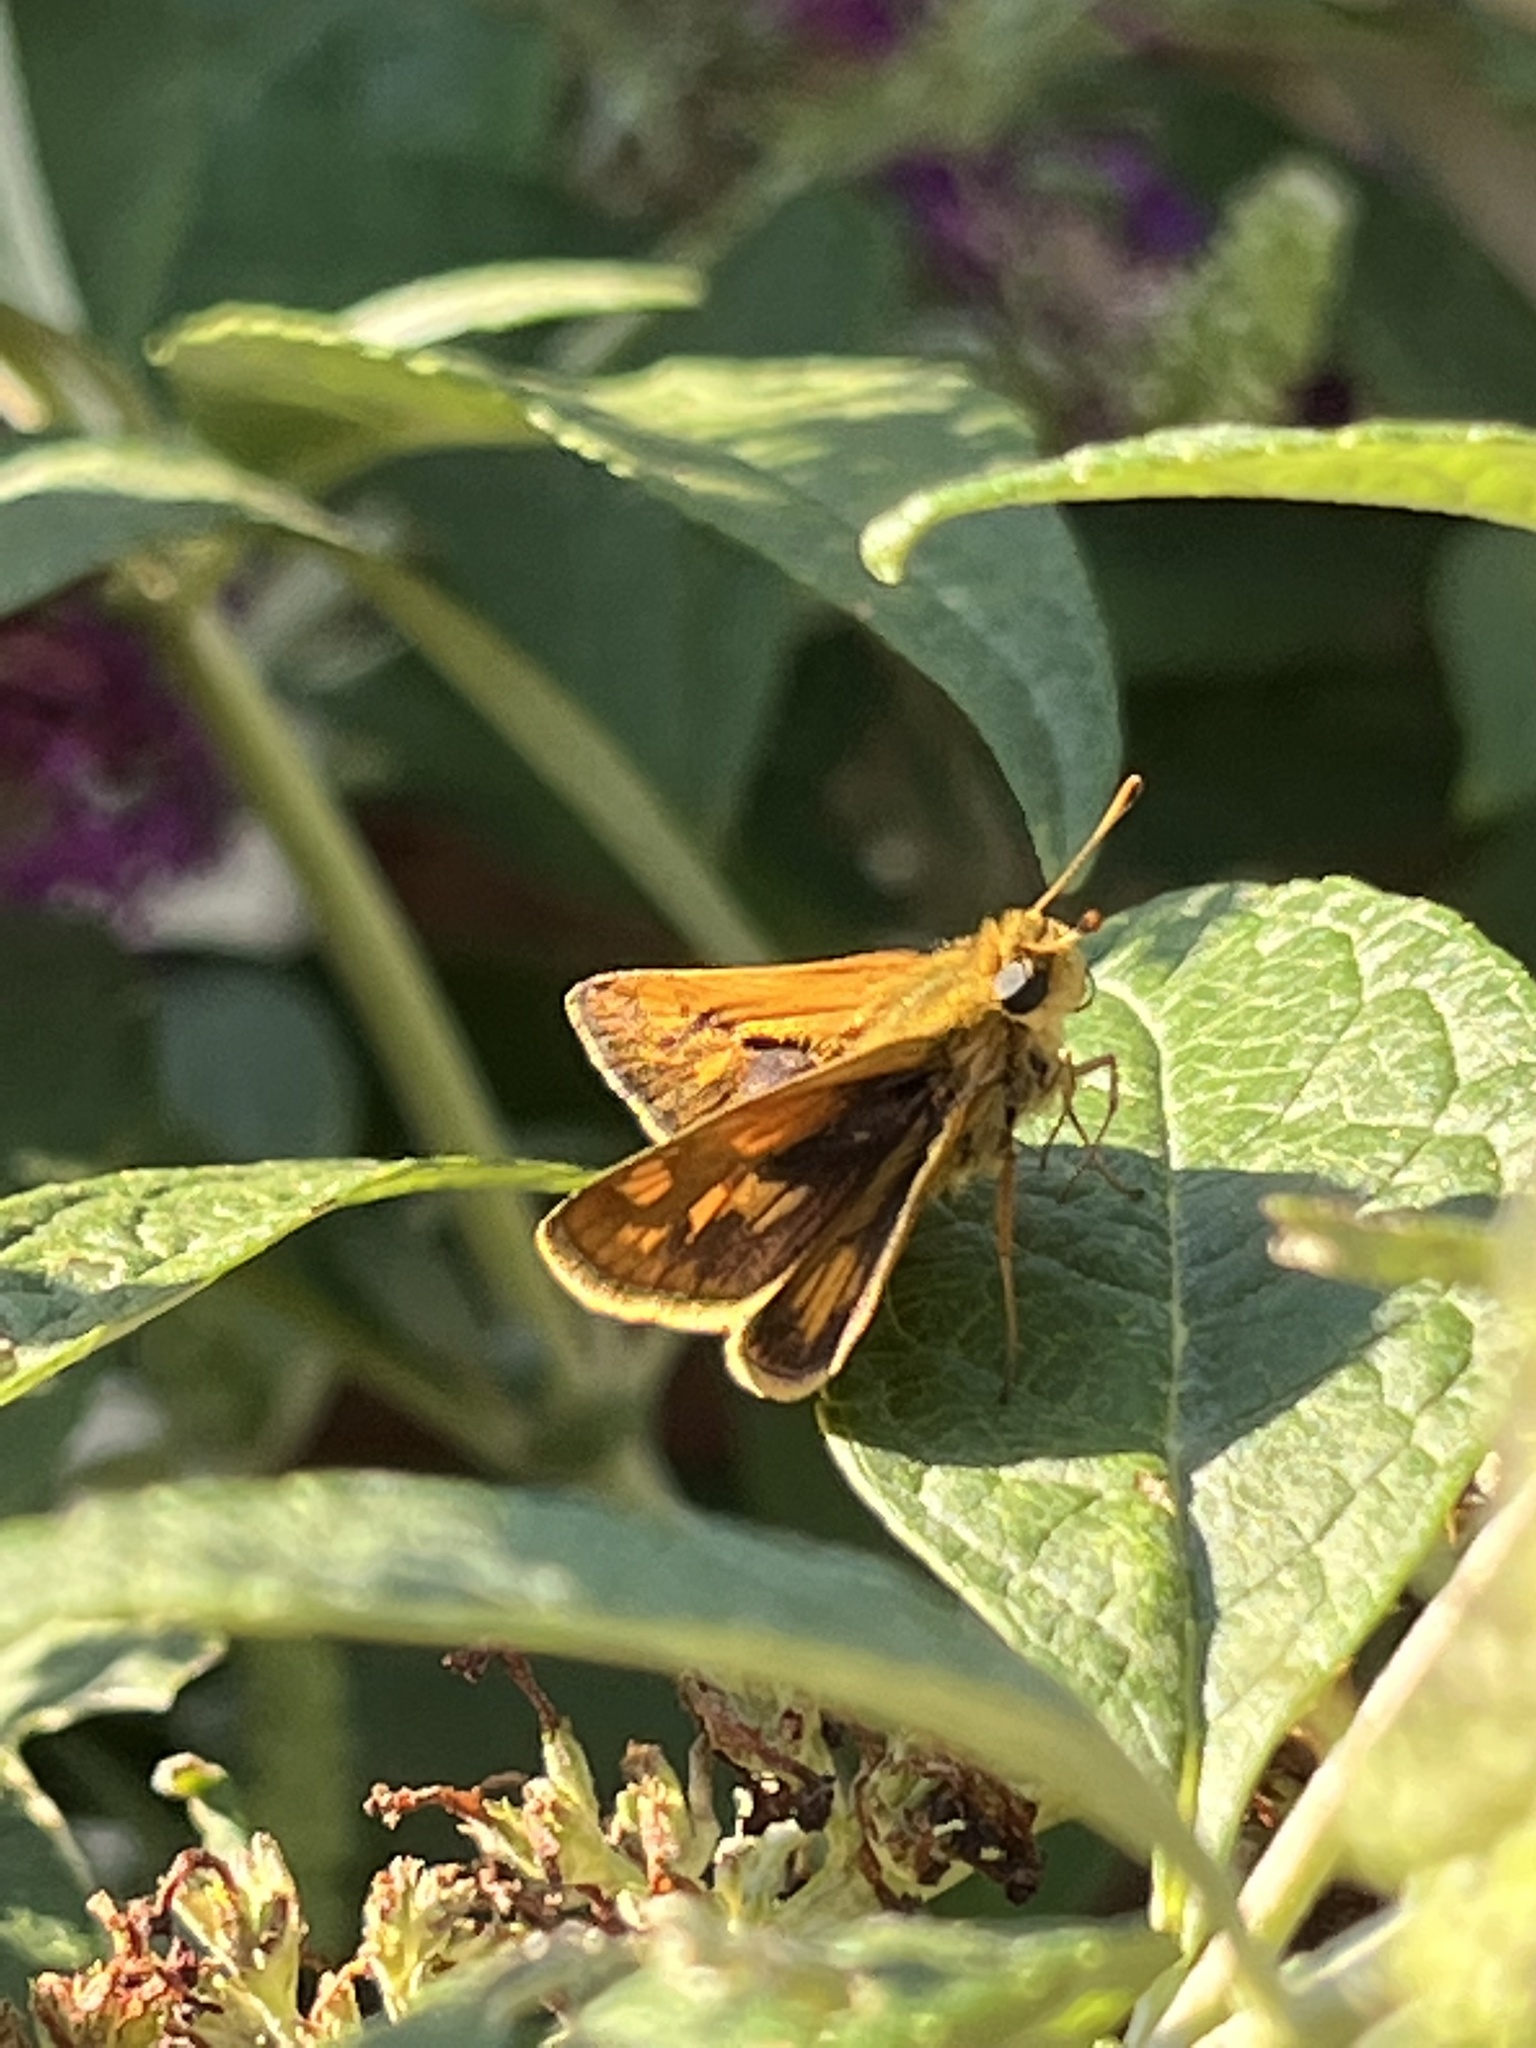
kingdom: Animalia
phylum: Arthropoda
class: Insecta
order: Lepidoptera
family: Hesperiidae
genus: Polites
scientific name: Polites coras
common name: Peck's skipper
